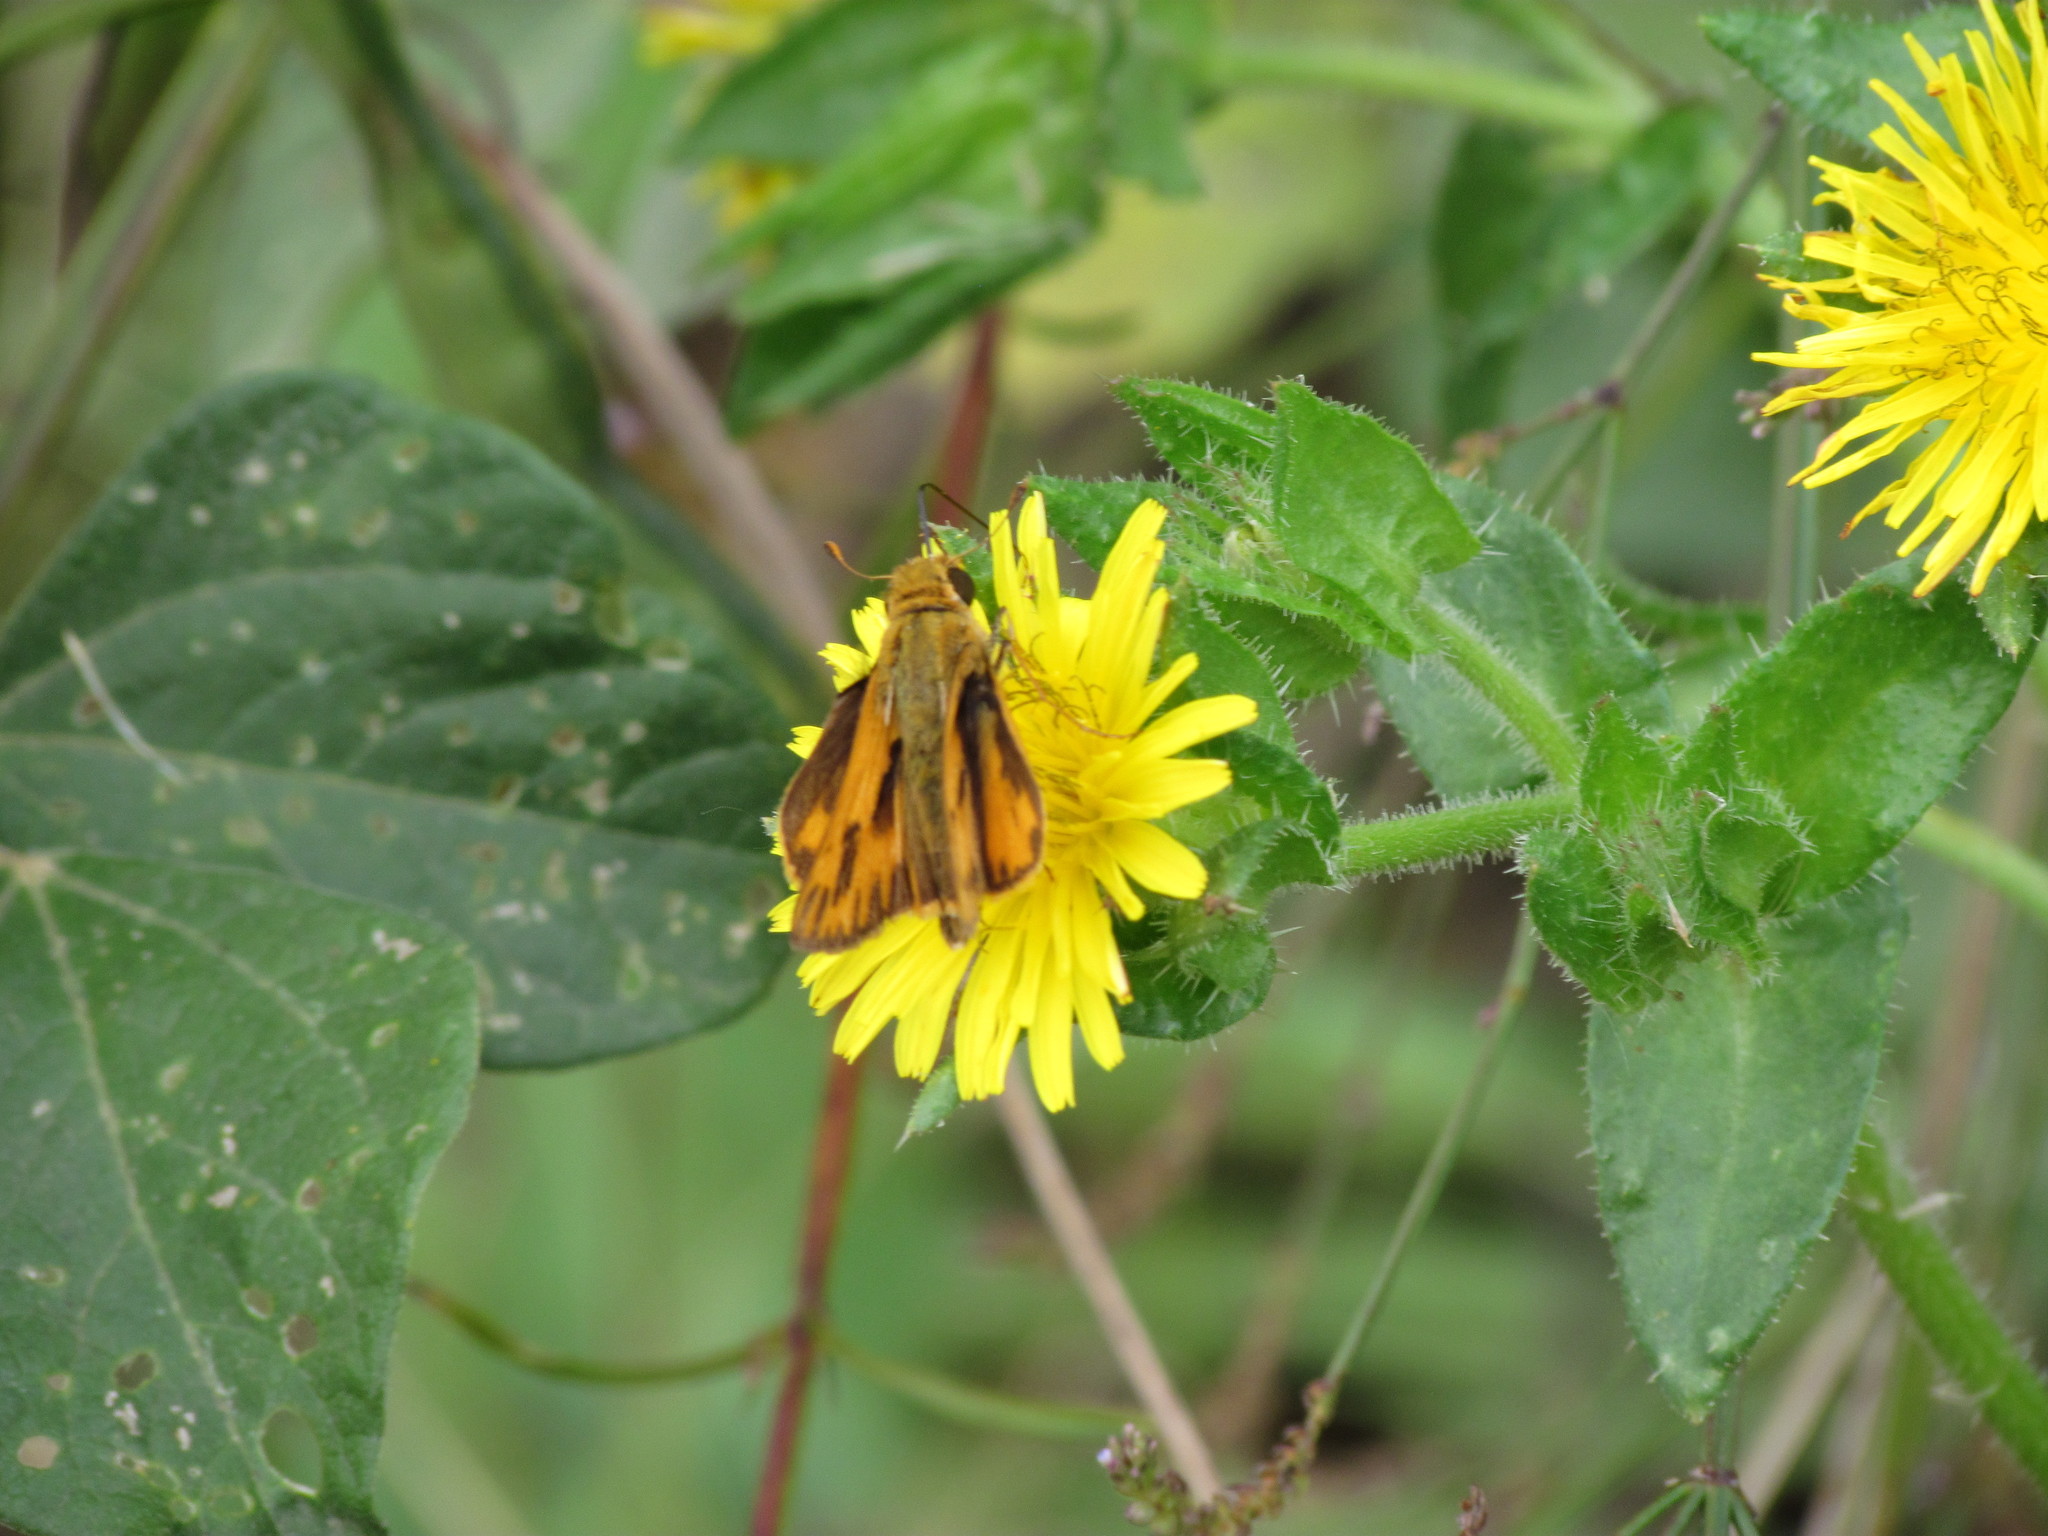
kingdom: Animalia
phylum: Arthropoda
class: Insecta
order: Lepidoptera
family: Hesperiidae
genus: Hylephila
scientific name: Hylephila phyleus
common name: Fiery skipper
